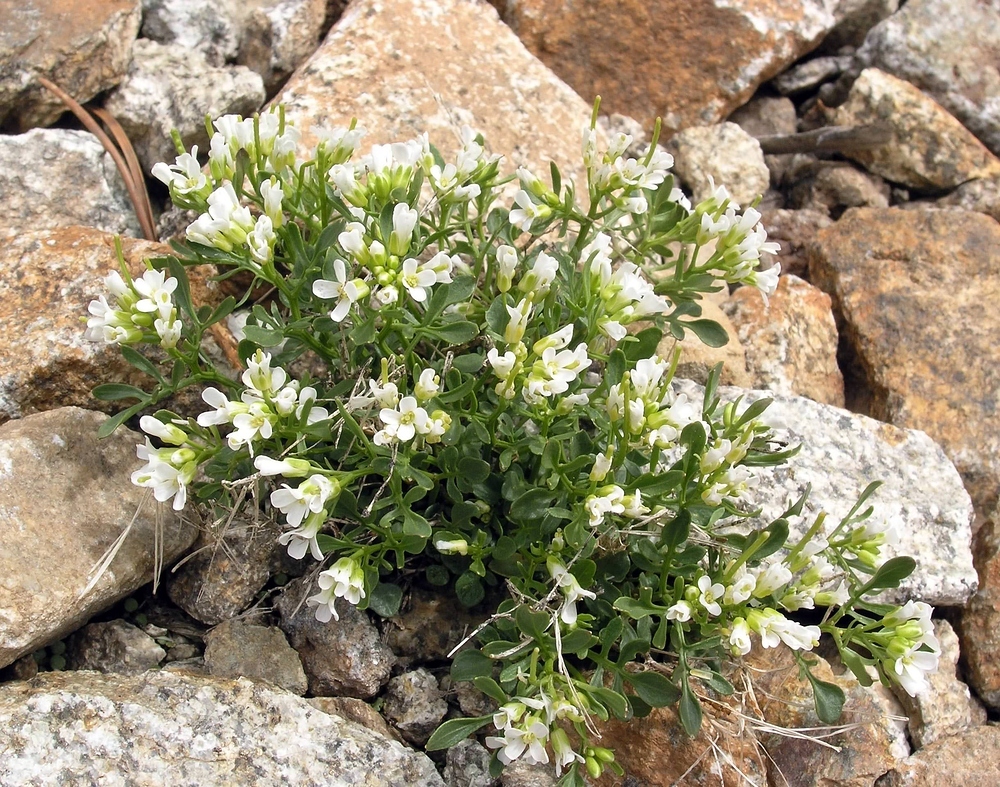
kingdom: Plantae
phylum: Tracheophyta
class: Magnoliopsida
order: Brassicales
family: Brassicaceae
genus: Cardamine
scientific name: Cardamine resedifolia
